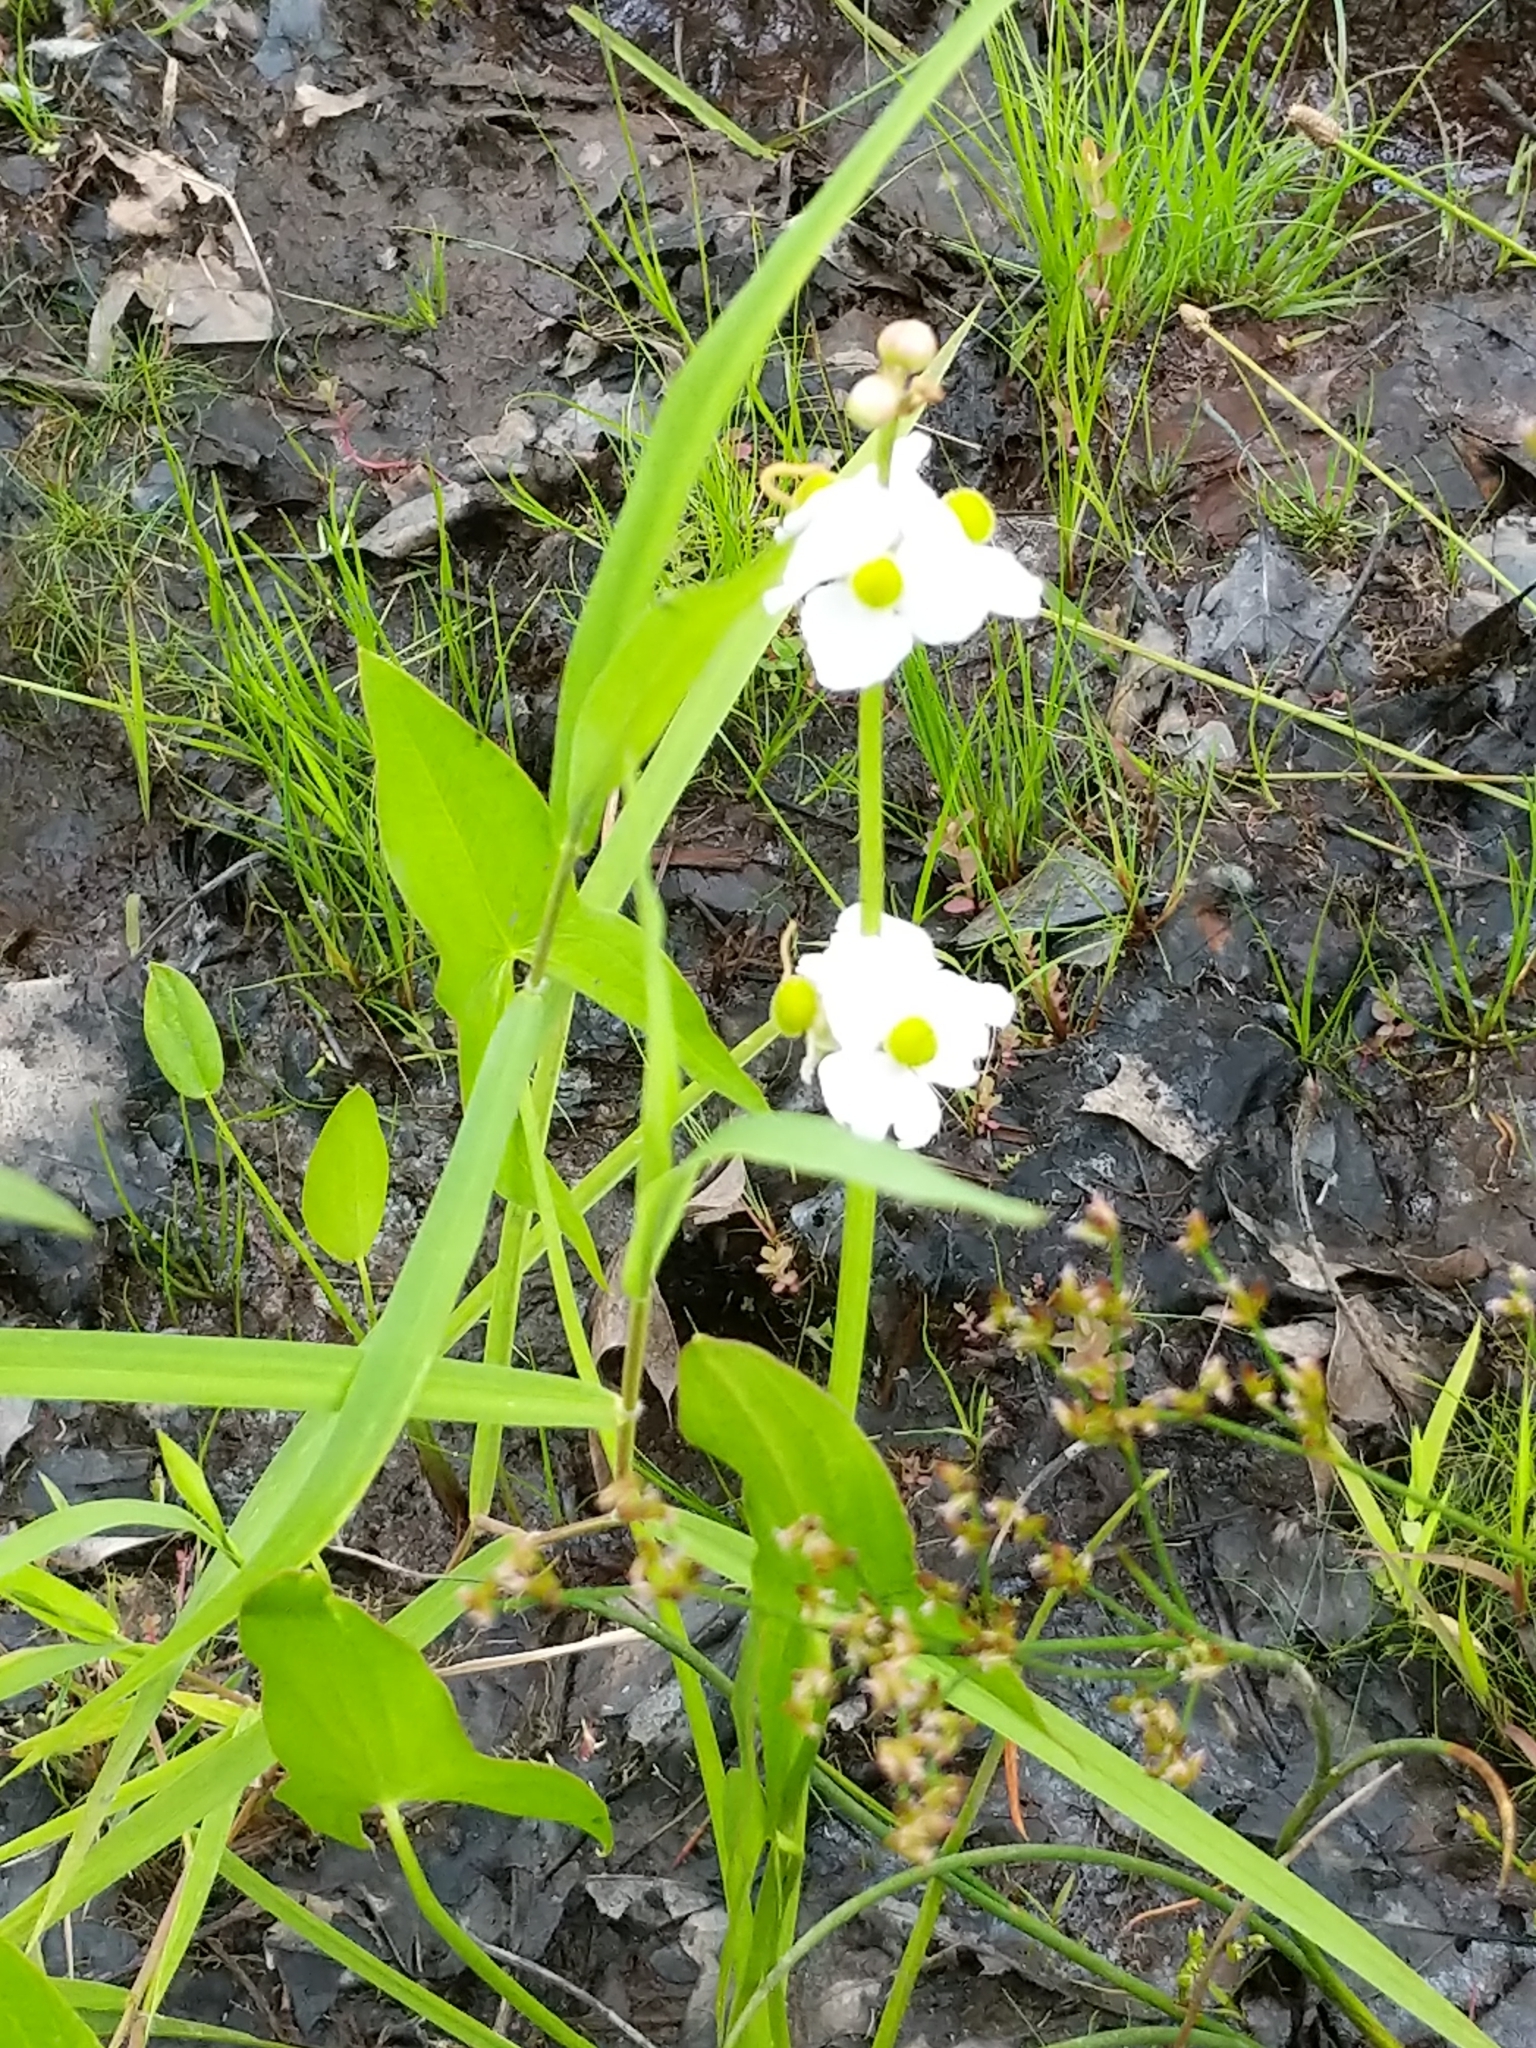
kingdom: Plantae
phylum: Tracheophyta
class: Liliopsida
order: Alismatales
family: Alismataceae
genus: Sagittaria
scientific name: Sagittaria latifolia
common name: Duck-potato
